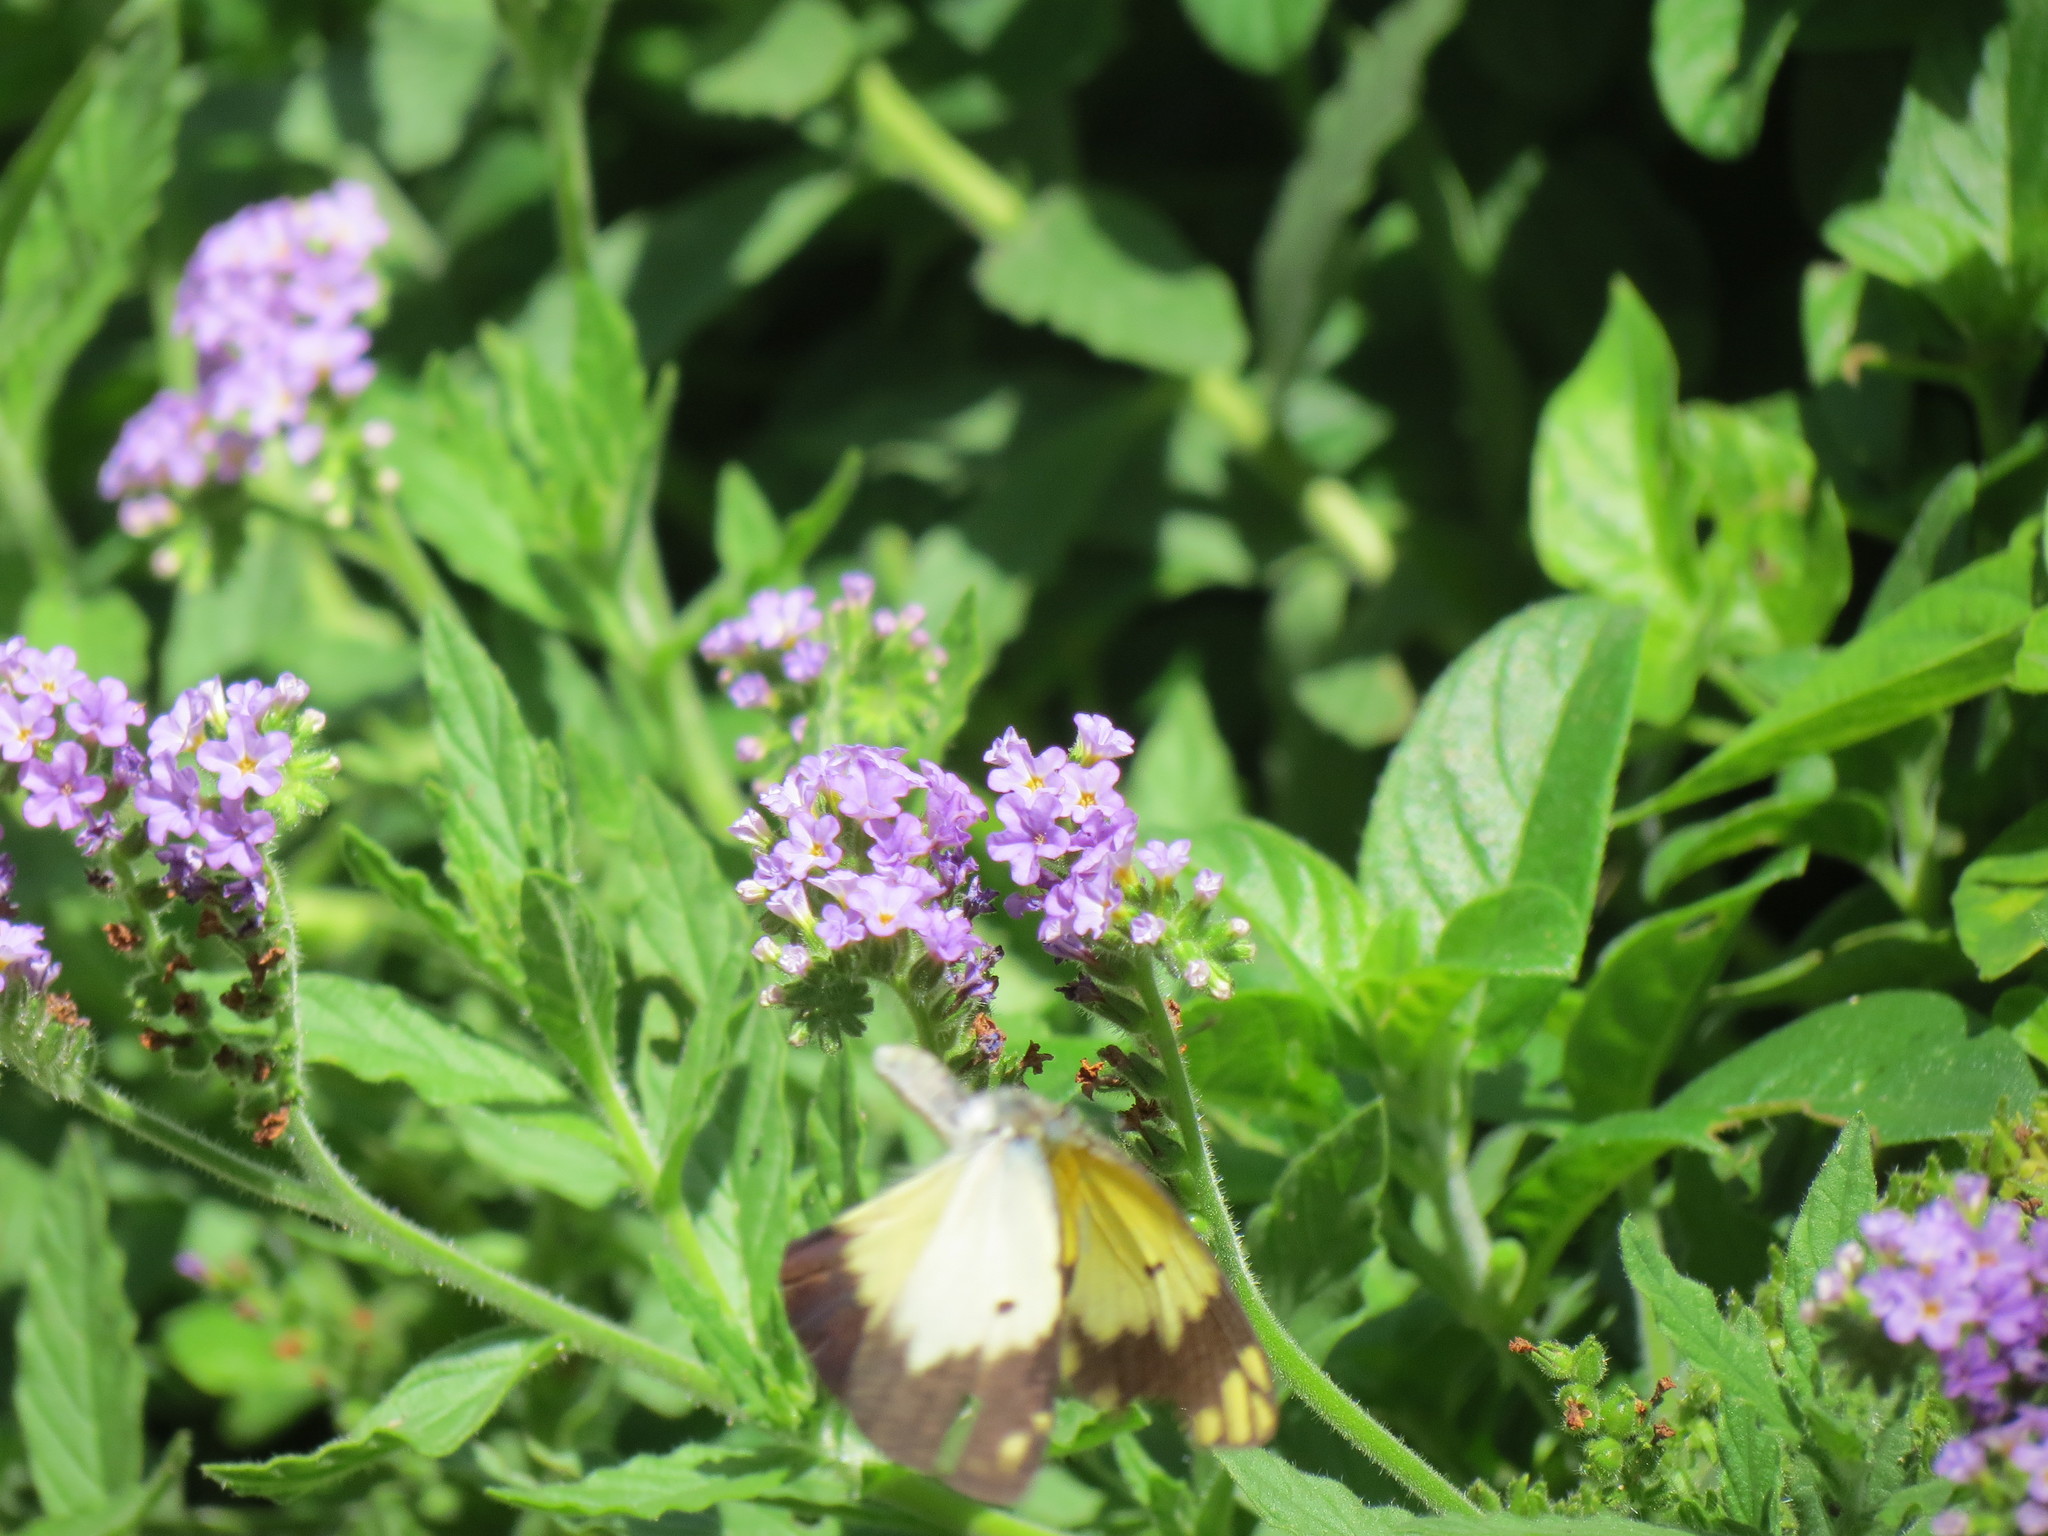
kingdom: Animalia
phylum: Arthropoda
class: Insecta
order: Lepidoptera
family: Pieridae
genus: Belenois
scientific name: Belenois creona
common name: African caper white
